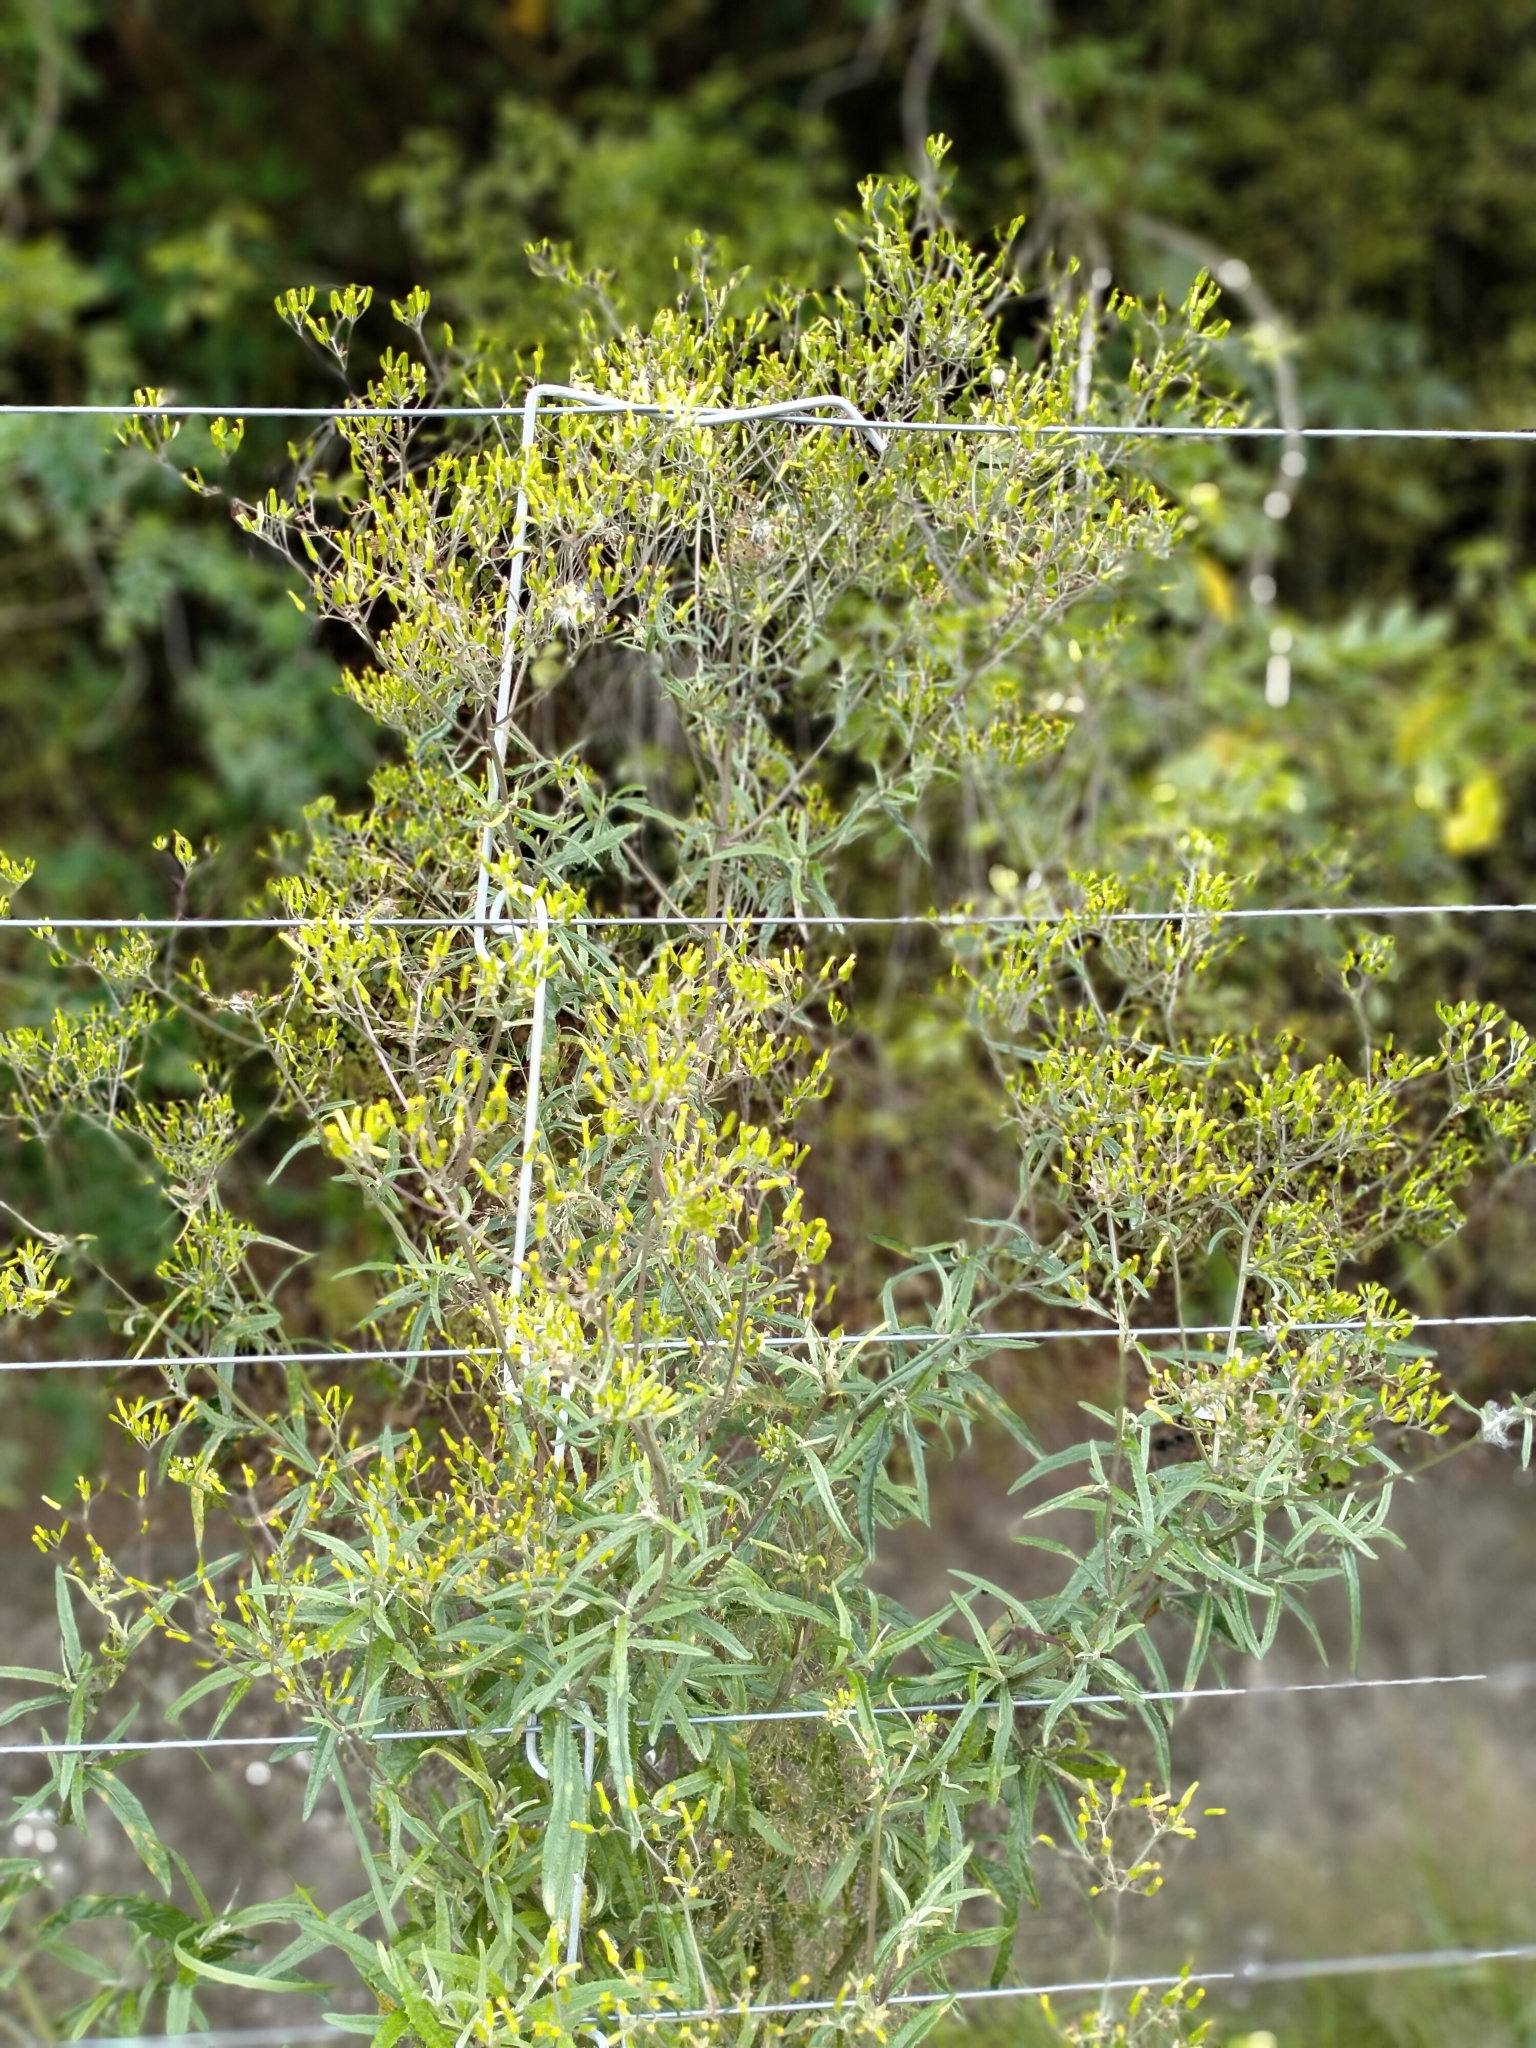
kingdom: Plantae
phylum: Tracheophyta
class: Magnoliopsida
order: Asterales
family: Asteraceae
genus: Senecio
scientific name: Senecio minimus
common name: Toothed fireweed
